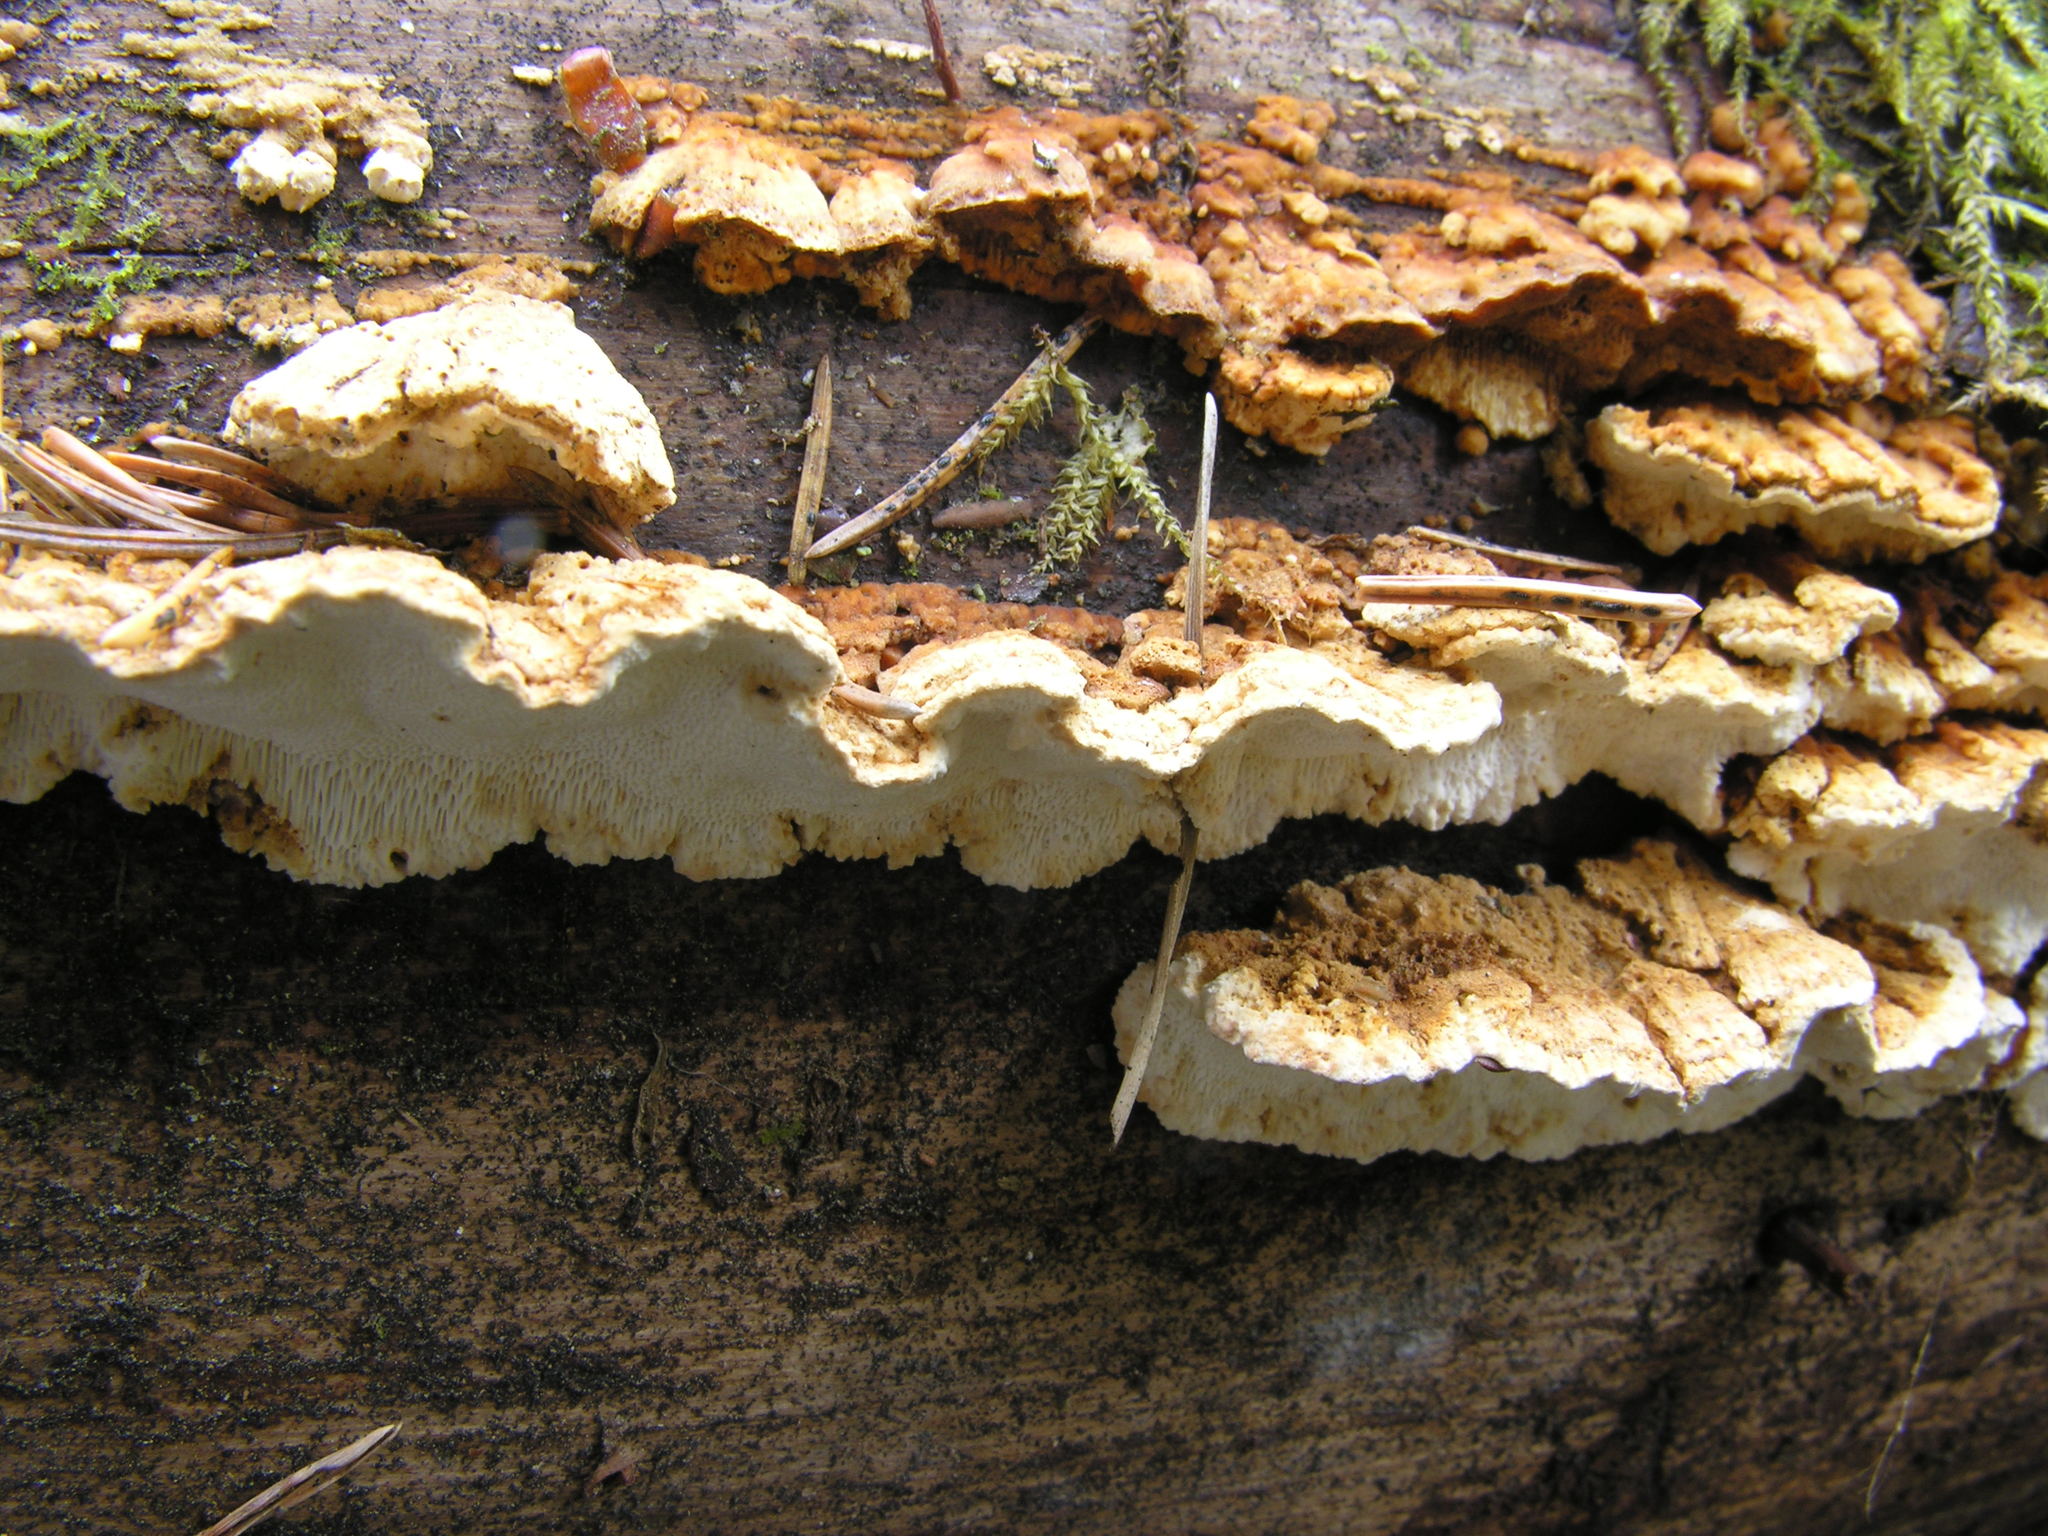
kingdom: Fungi
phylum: Basidiomycota
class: Agaricomycetes
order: Polyporales
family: Fomitopsidaceae
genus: Neoantrodia
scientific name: Neoantrodia serialis
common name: Serried porecrust
